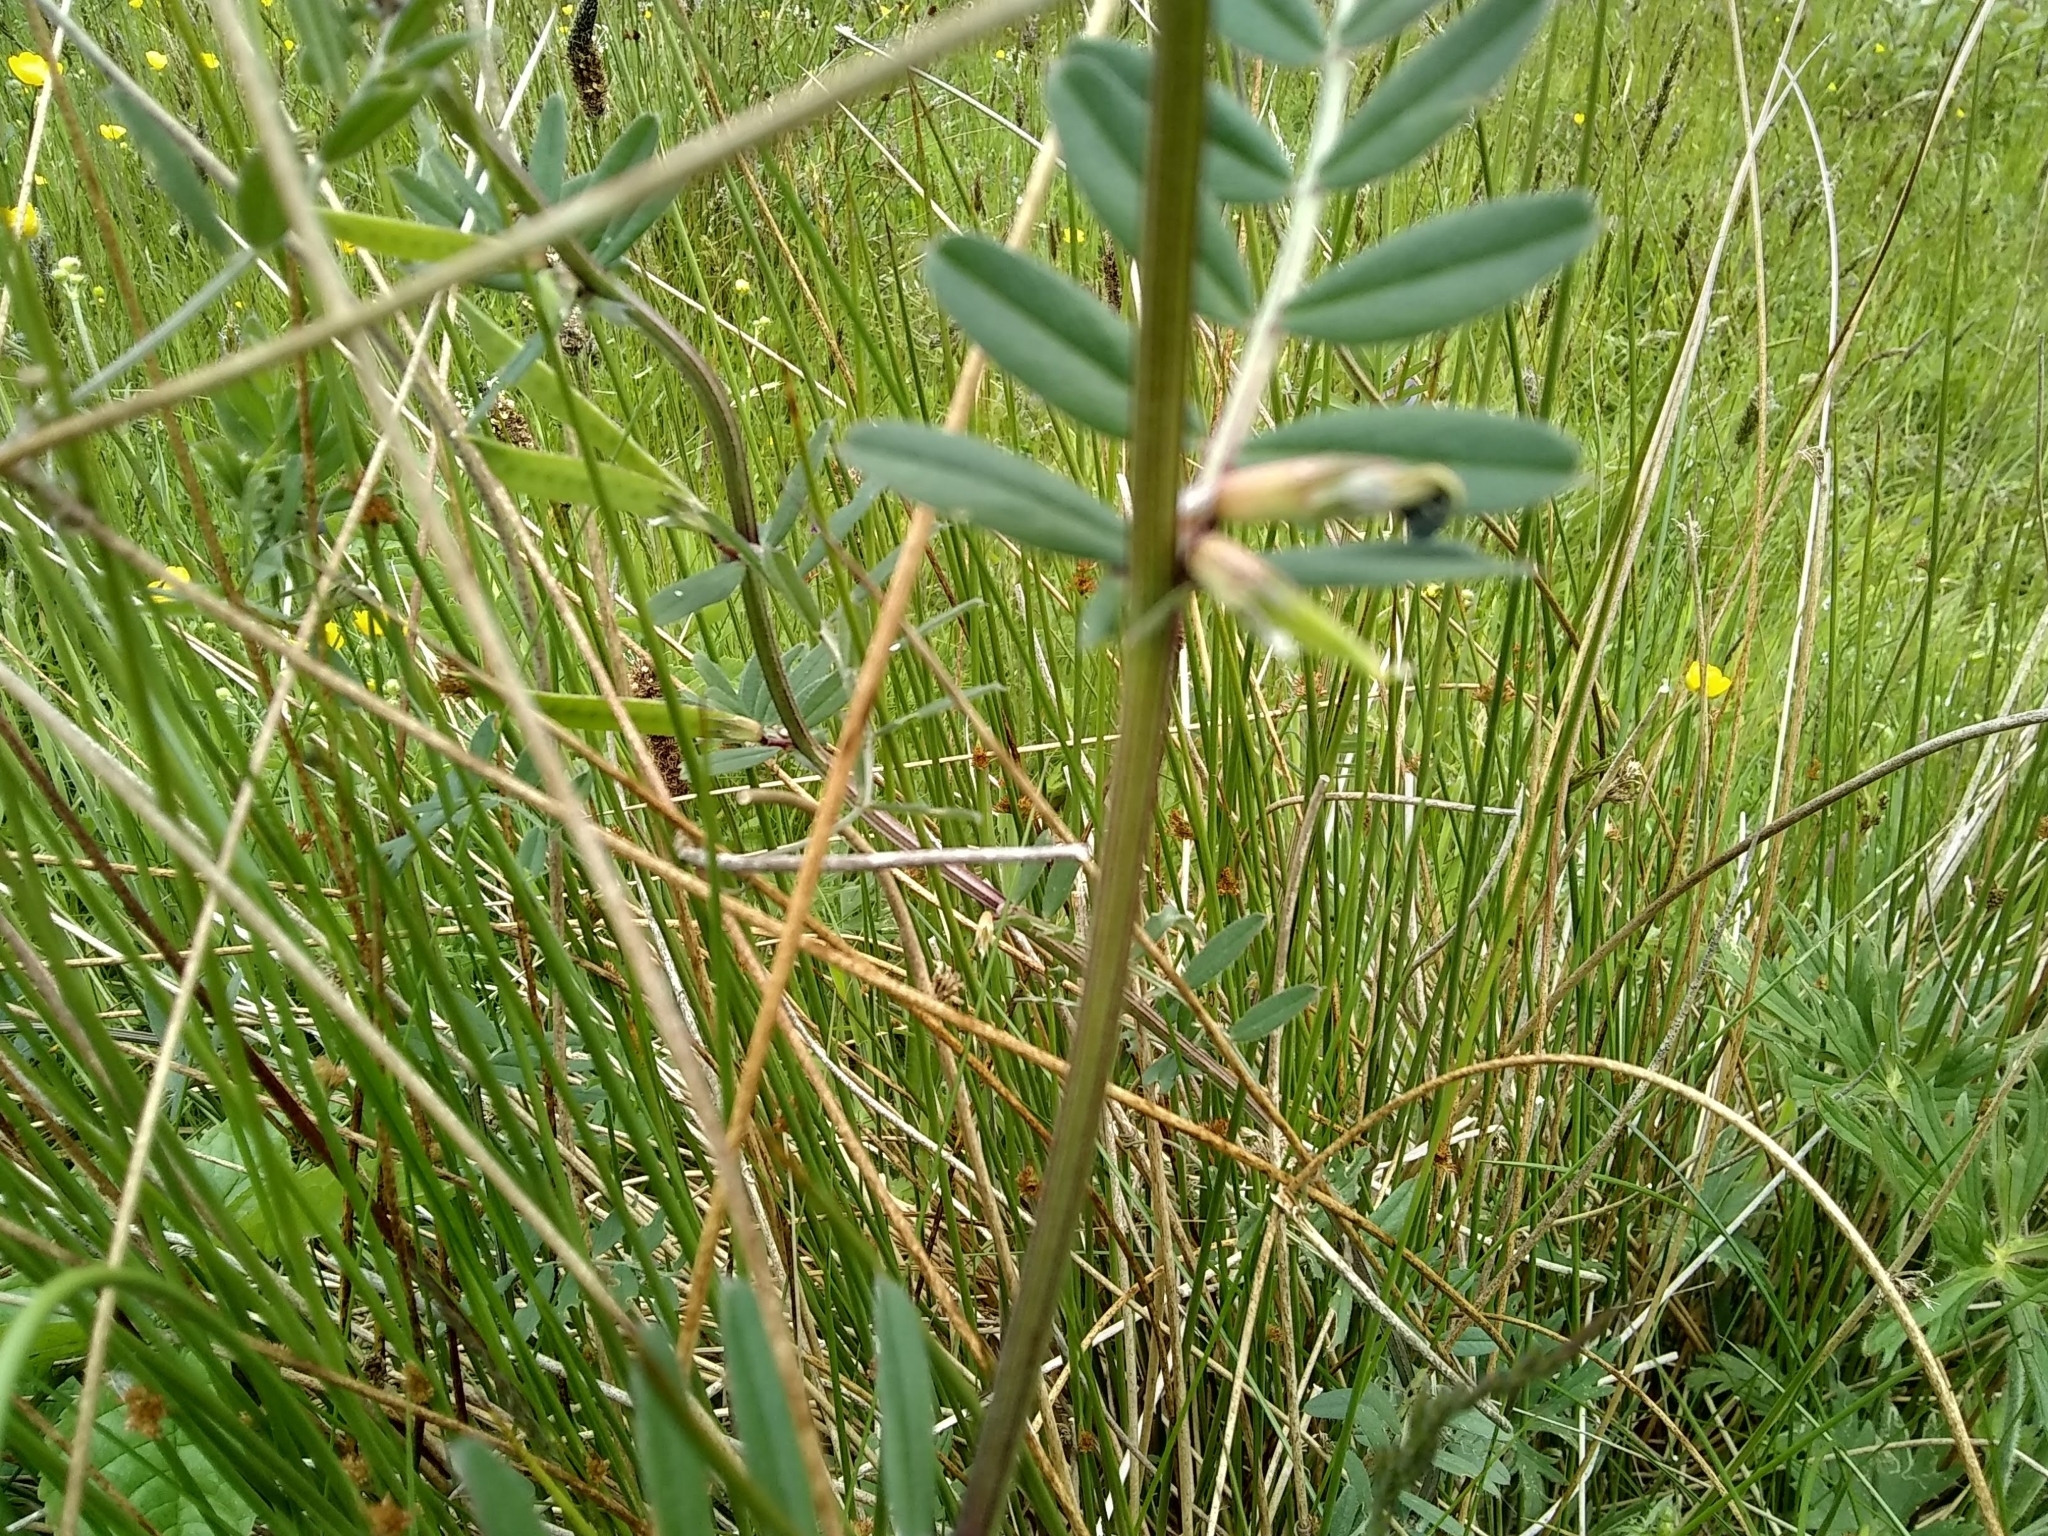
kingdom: Plantae
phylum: Tracheophyta
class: Magnoliopsida
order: Fabales
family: Fabaceae
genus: Vicia
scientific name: Vicia sativa
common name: Garden vetch
